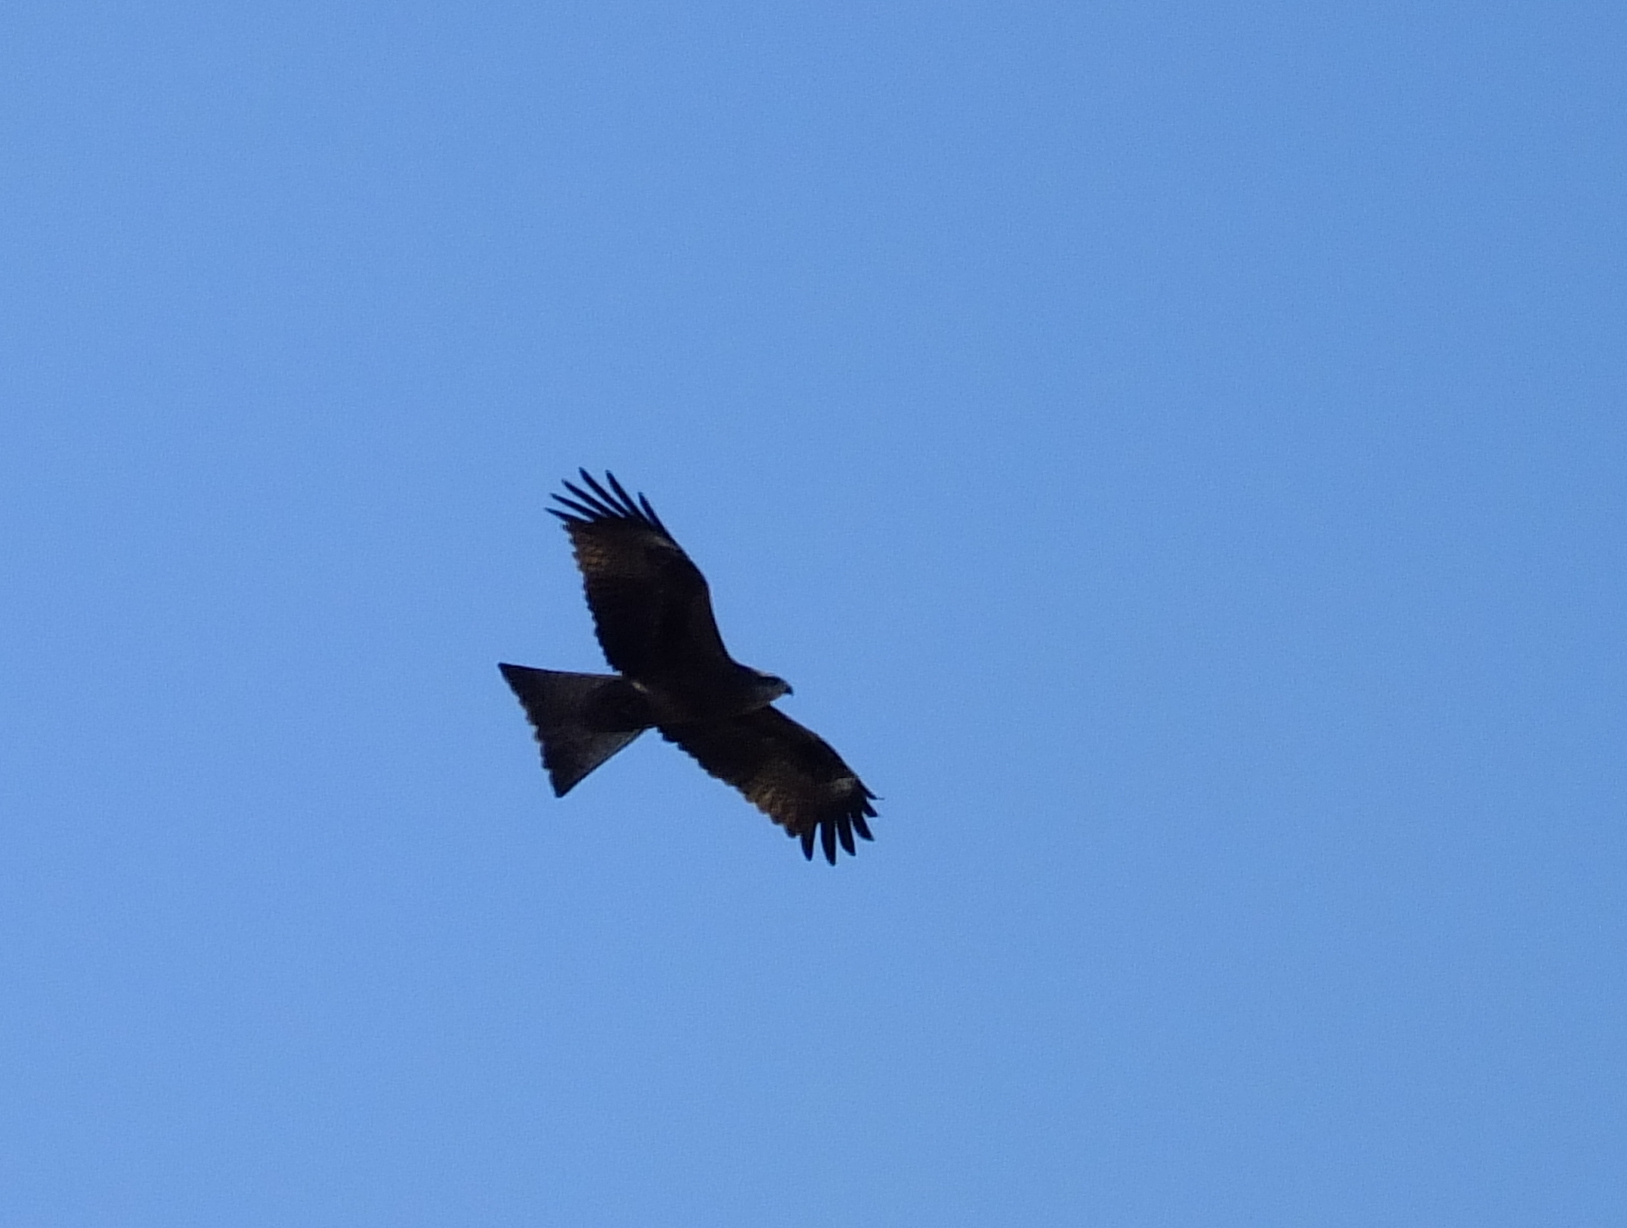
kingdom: Animalia
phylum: Chordata
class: Aves
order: Accipitriformes
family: Accipitridae
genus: Milvus
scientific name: Milvus migrans
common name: Black kite
